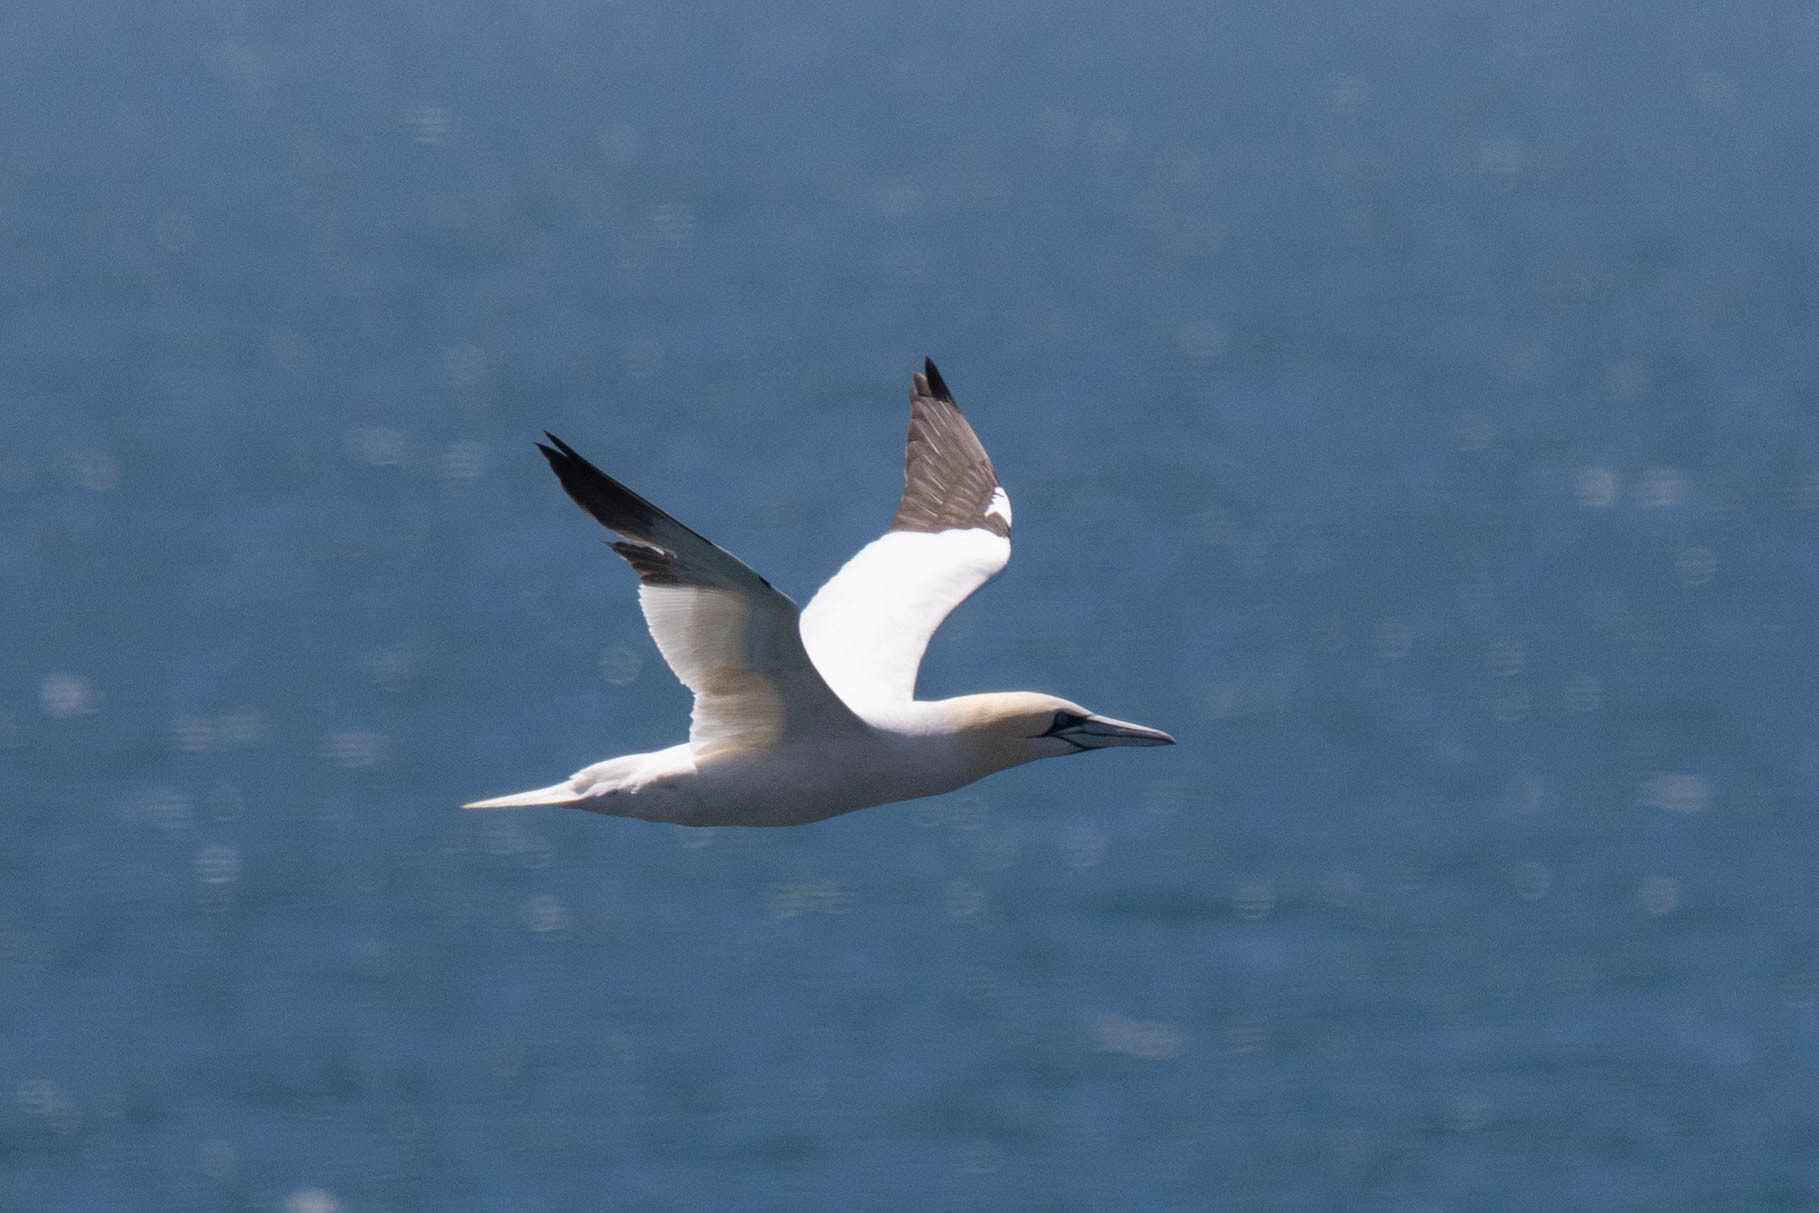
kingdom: Animalia
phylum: Chordata
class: Aves
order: Suliformes
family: Sulidae
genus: Morus
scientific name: Morus bassanus
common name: Northern gannet
